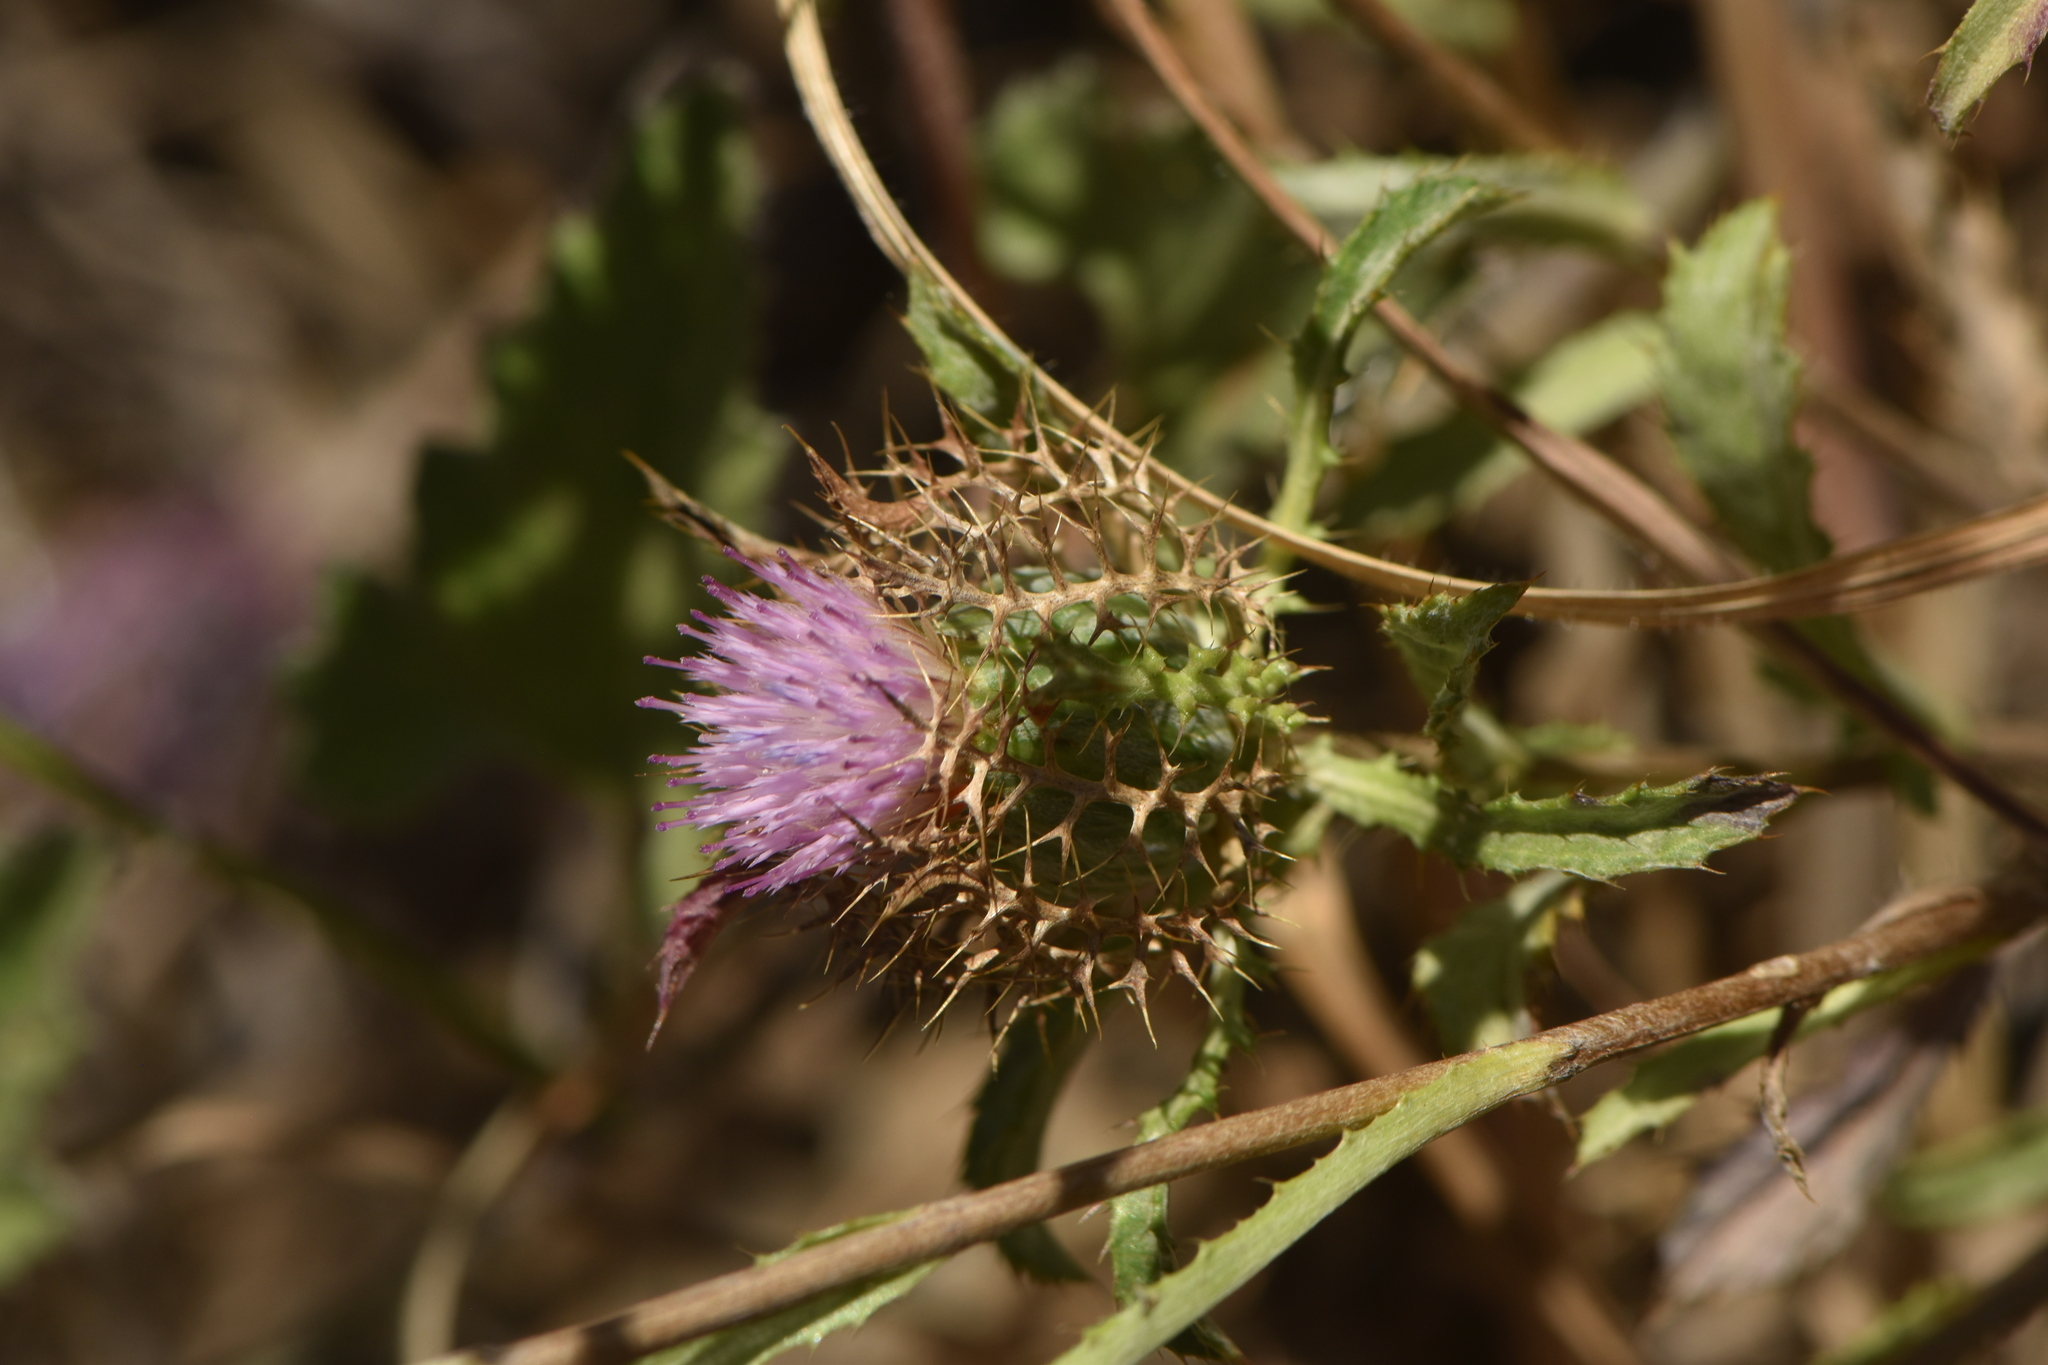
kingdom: Plantae
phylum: Tracheophyta
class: Magnoliopsida
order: Asterales
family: Asteraceae
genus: Atractylis
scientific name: Atractylis cancellata
